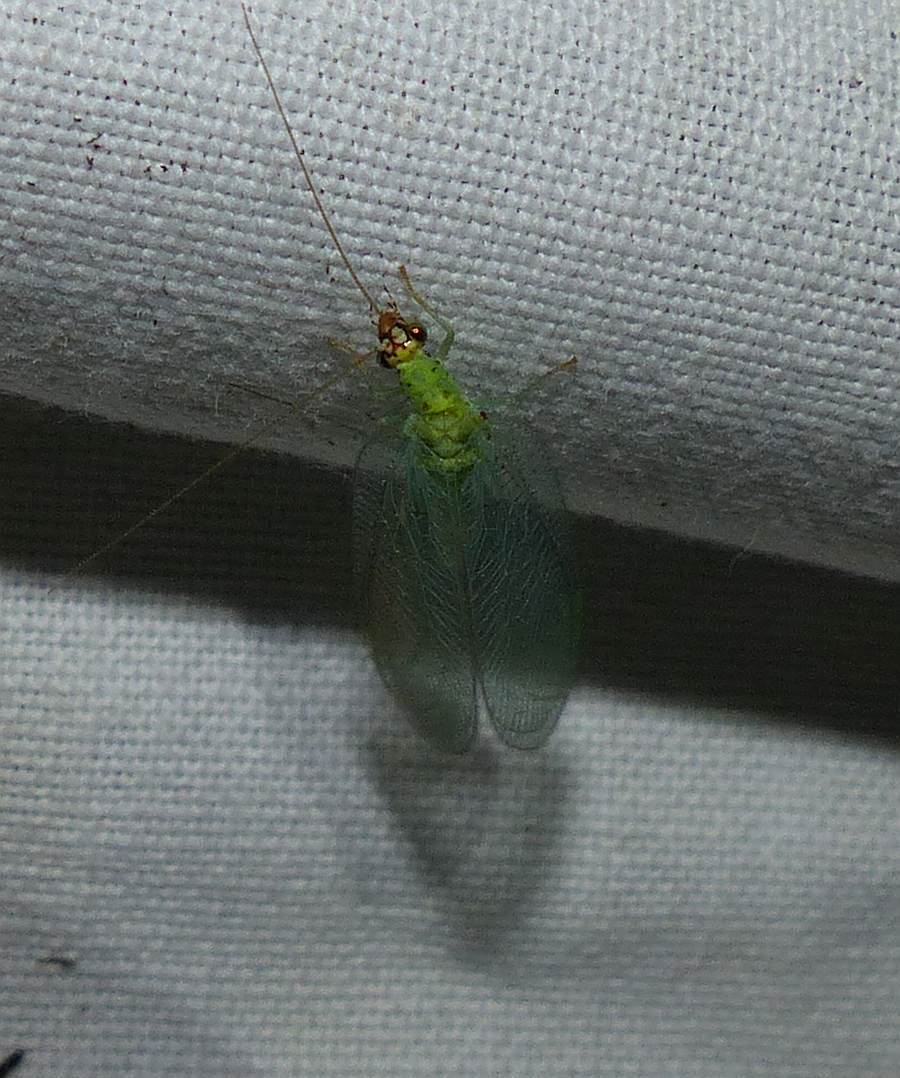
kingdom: Animalia
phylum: Arthropoda
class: Insecta
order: Neuroptera
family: Chrysopidae
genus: Chrysopa
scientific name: Chrysopa oculata
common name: Golden-eyed lacewing
